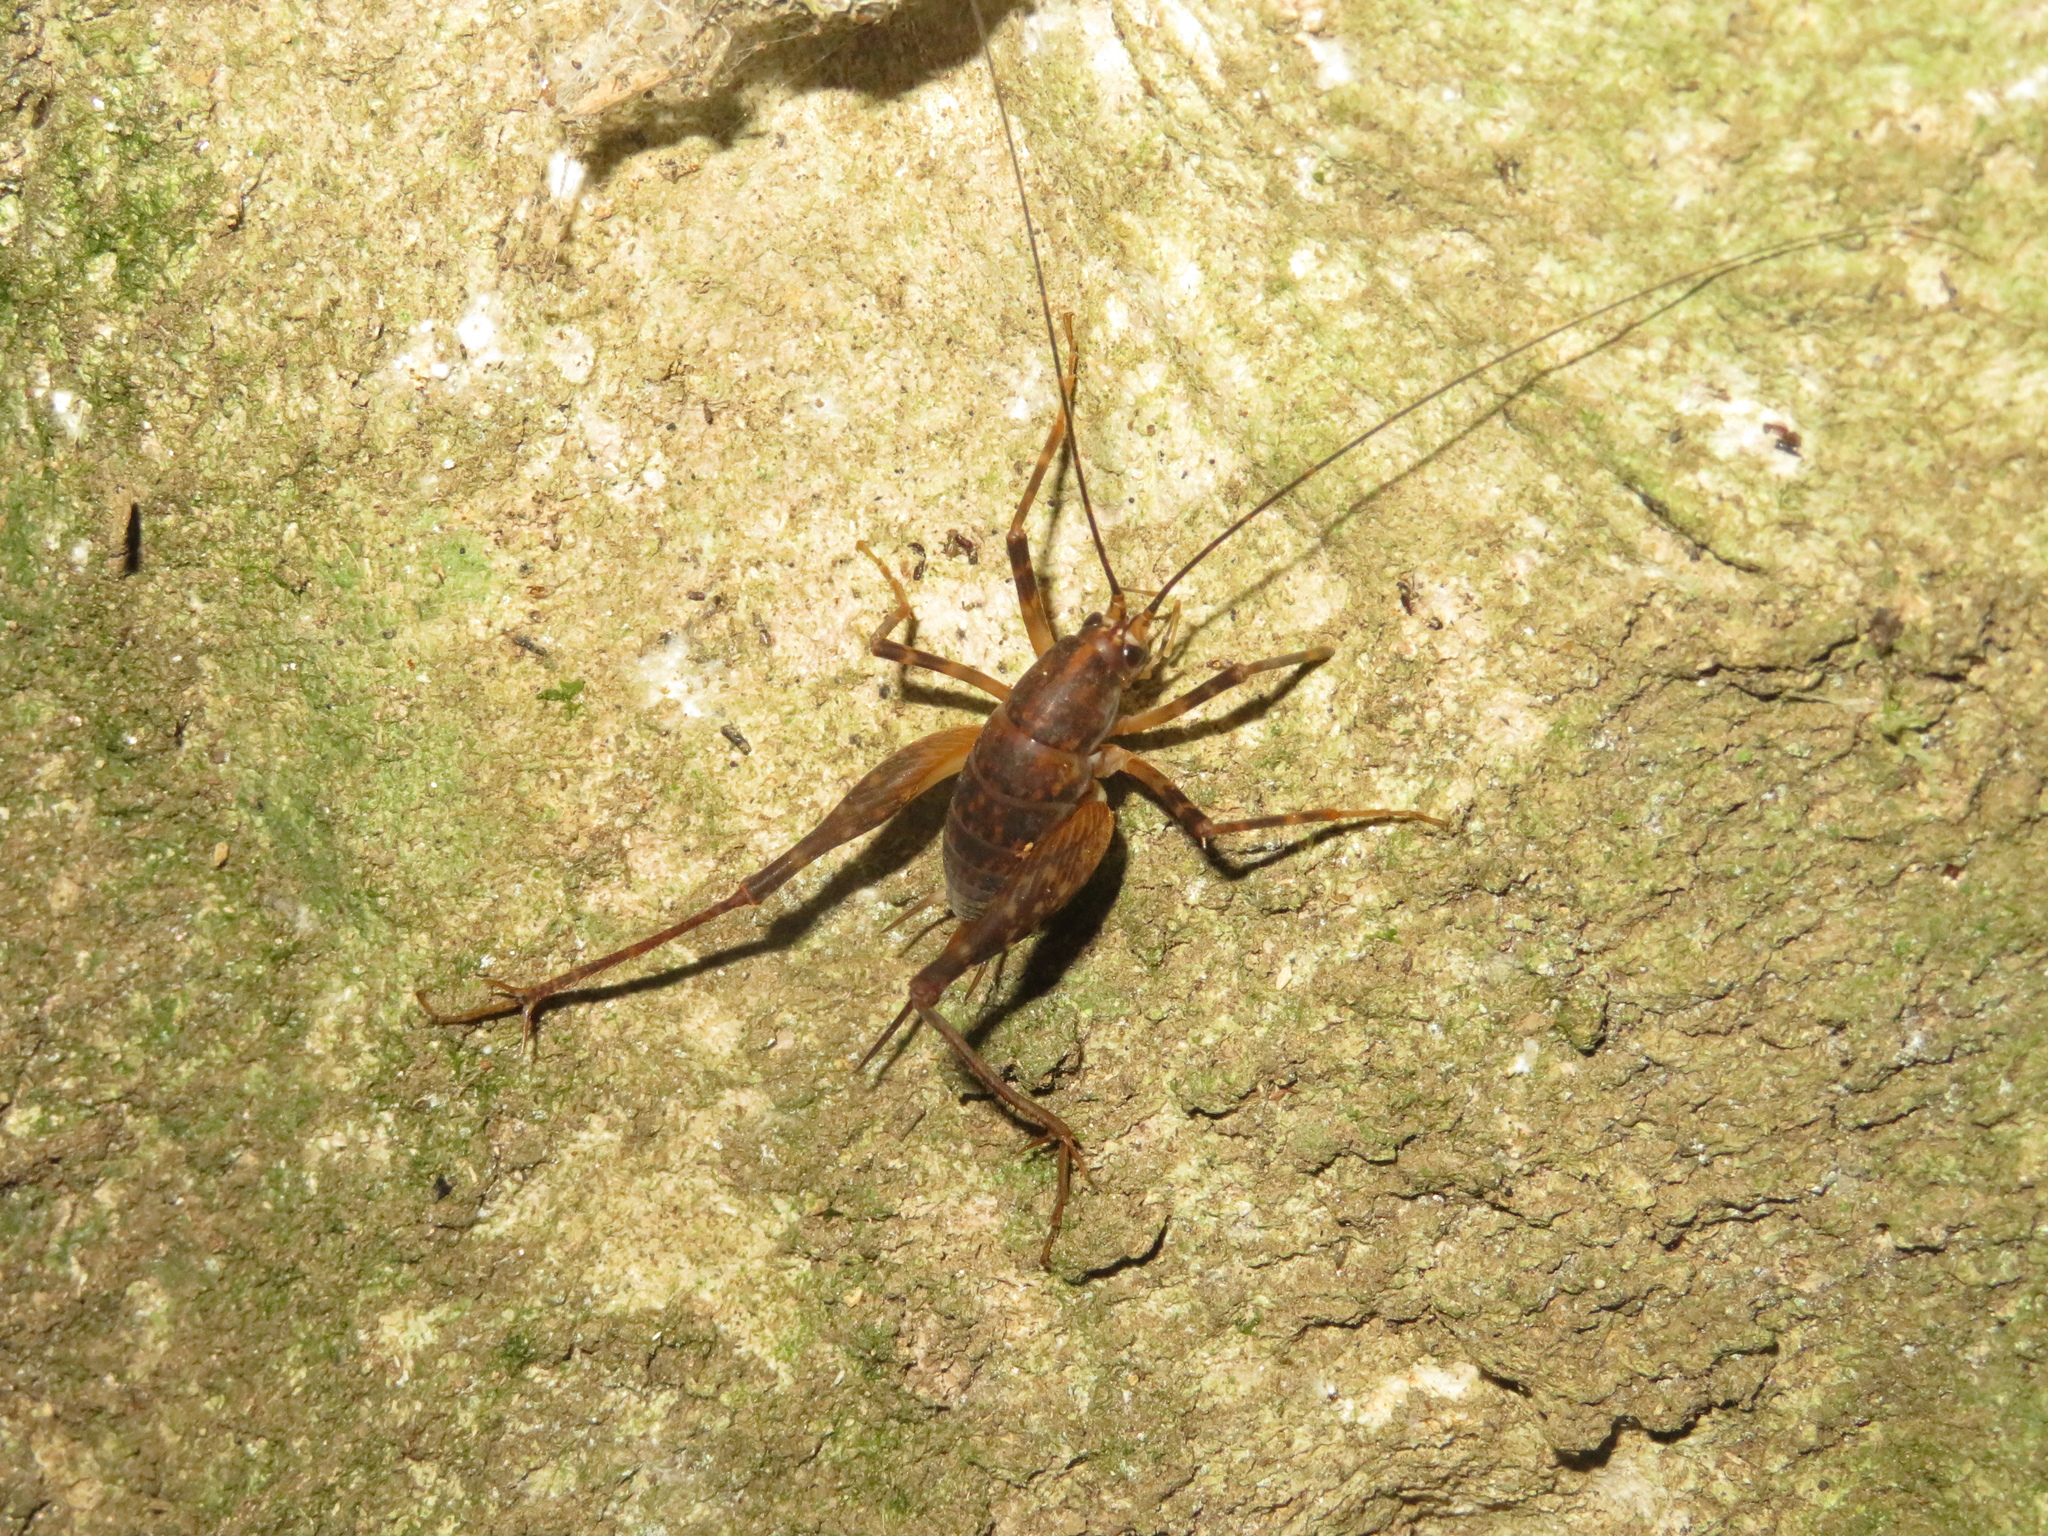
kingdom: Animalia
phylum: Arthropoda
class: Insecta
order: Orthoptera
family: Rhaphidophoridae
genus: Miotopus
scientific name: Miotopus diversus
